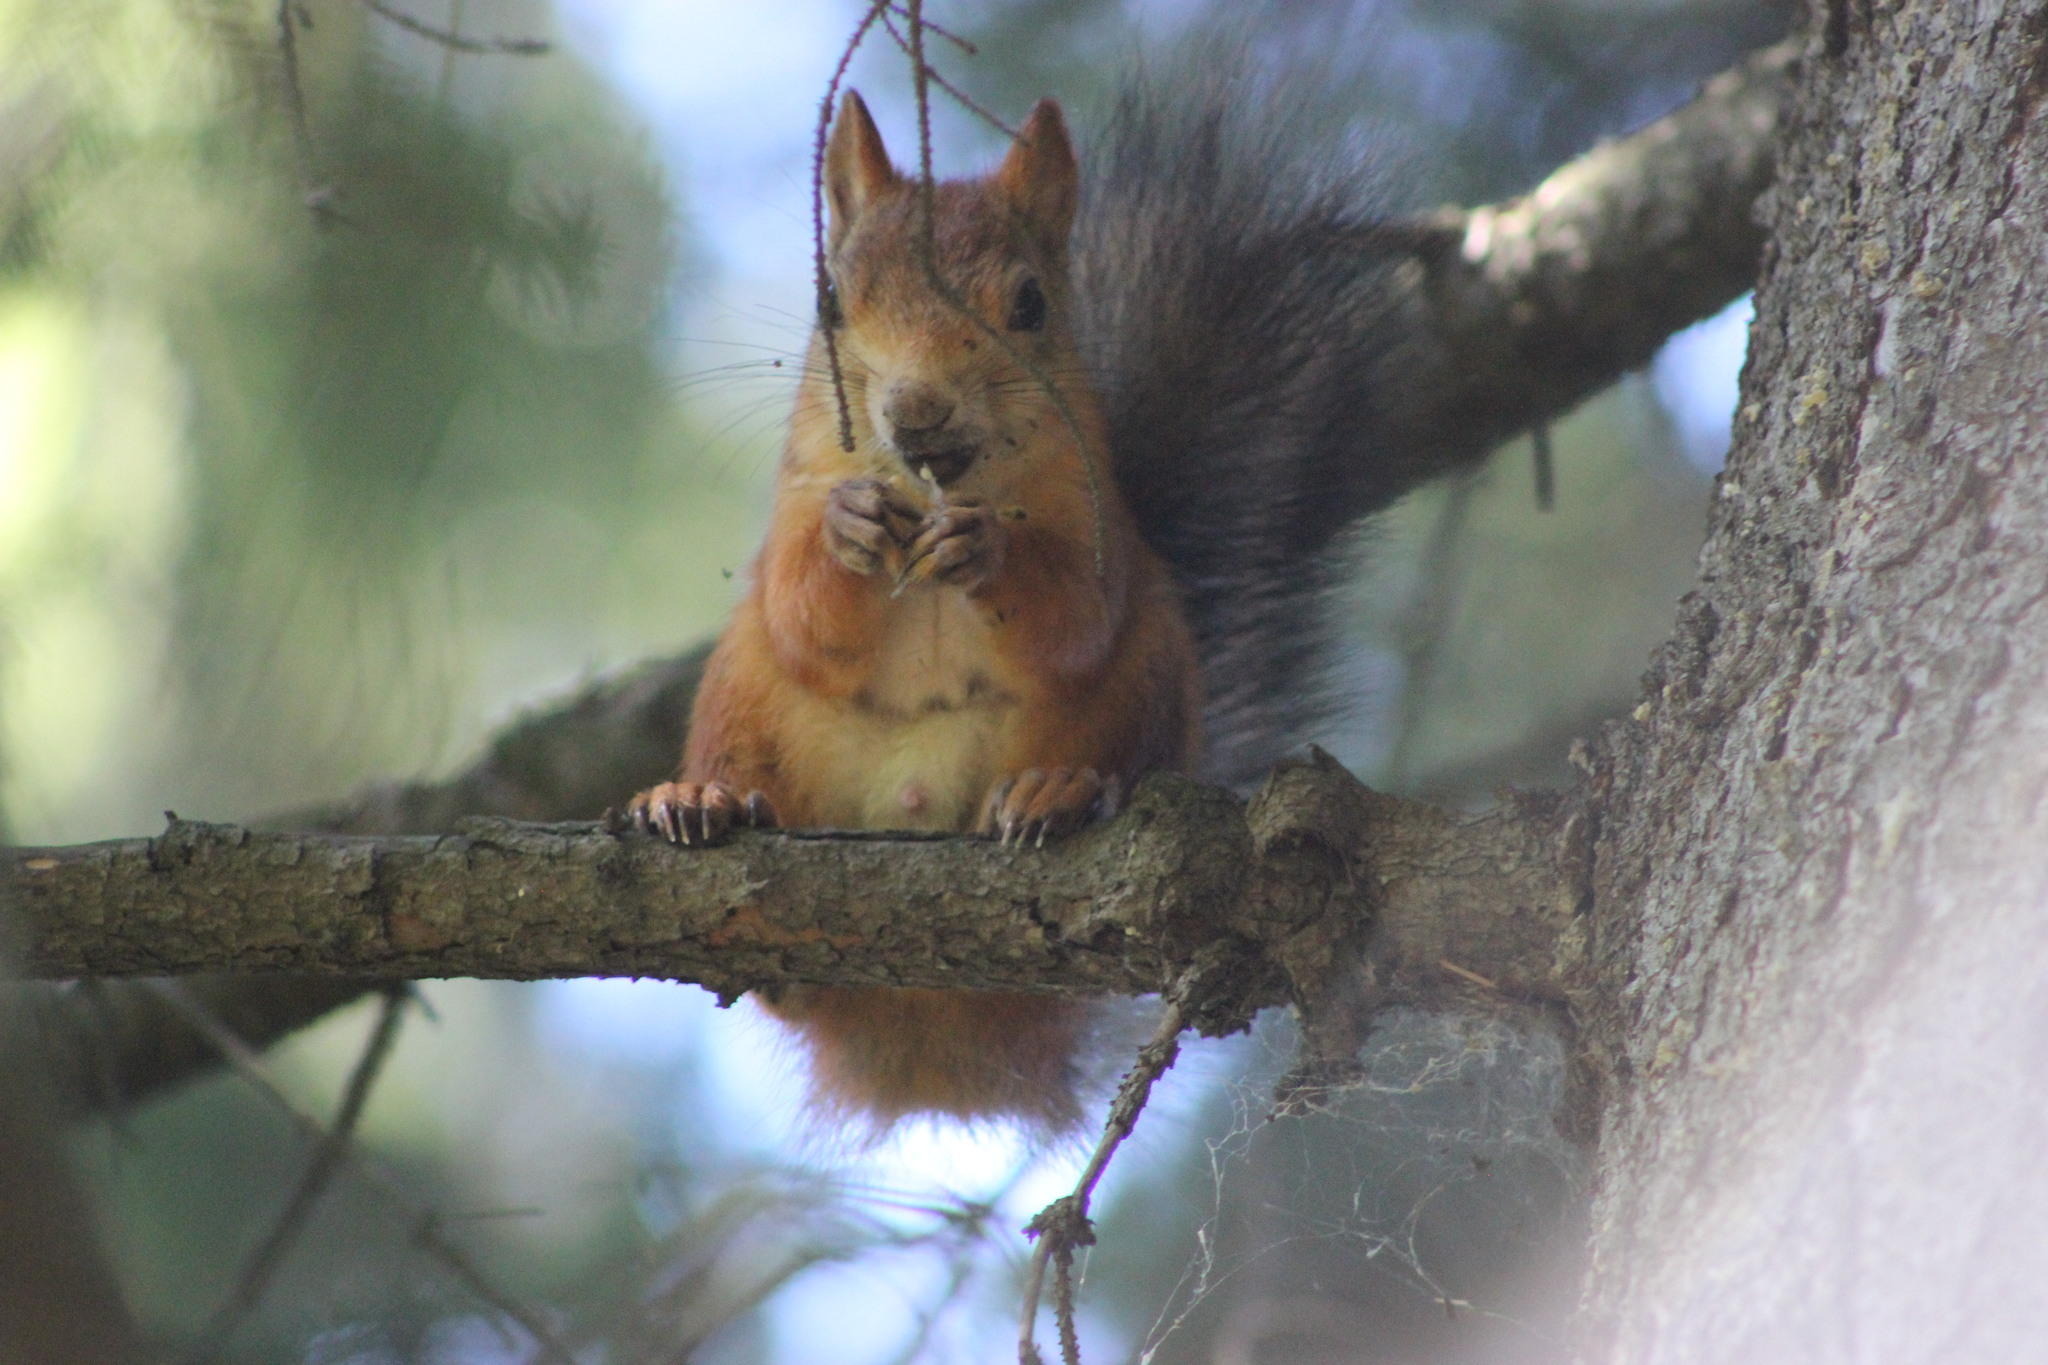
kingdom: Animalia
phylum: Chordata
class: Mammalia
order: Rodentia
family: Sciuridae
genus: Sciurus
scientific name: Sciurus vulgaris
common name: Eurasian red squirrel
